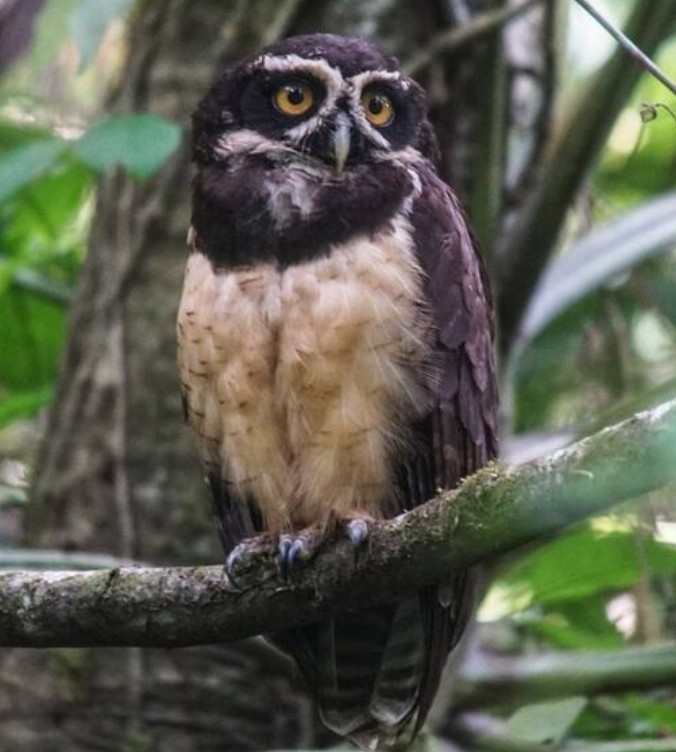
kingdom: Animalia
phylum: Chordata
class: Aves
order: Strigiformes
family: Strigidae
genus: Pulsatrix
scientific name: Pulsatrix perspicillata
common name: Spectacled owl
